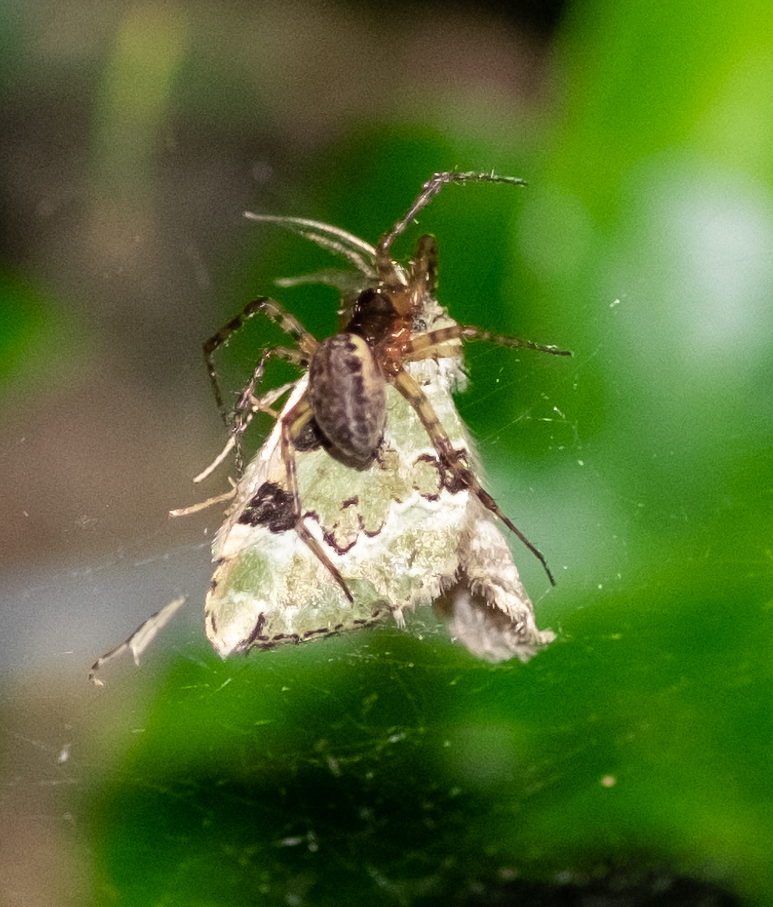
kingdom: Animalia
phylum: Arthropoda
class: Arachnida
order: Araneae
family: Linyphiidae
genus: Neriene
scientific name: Neriene montana
